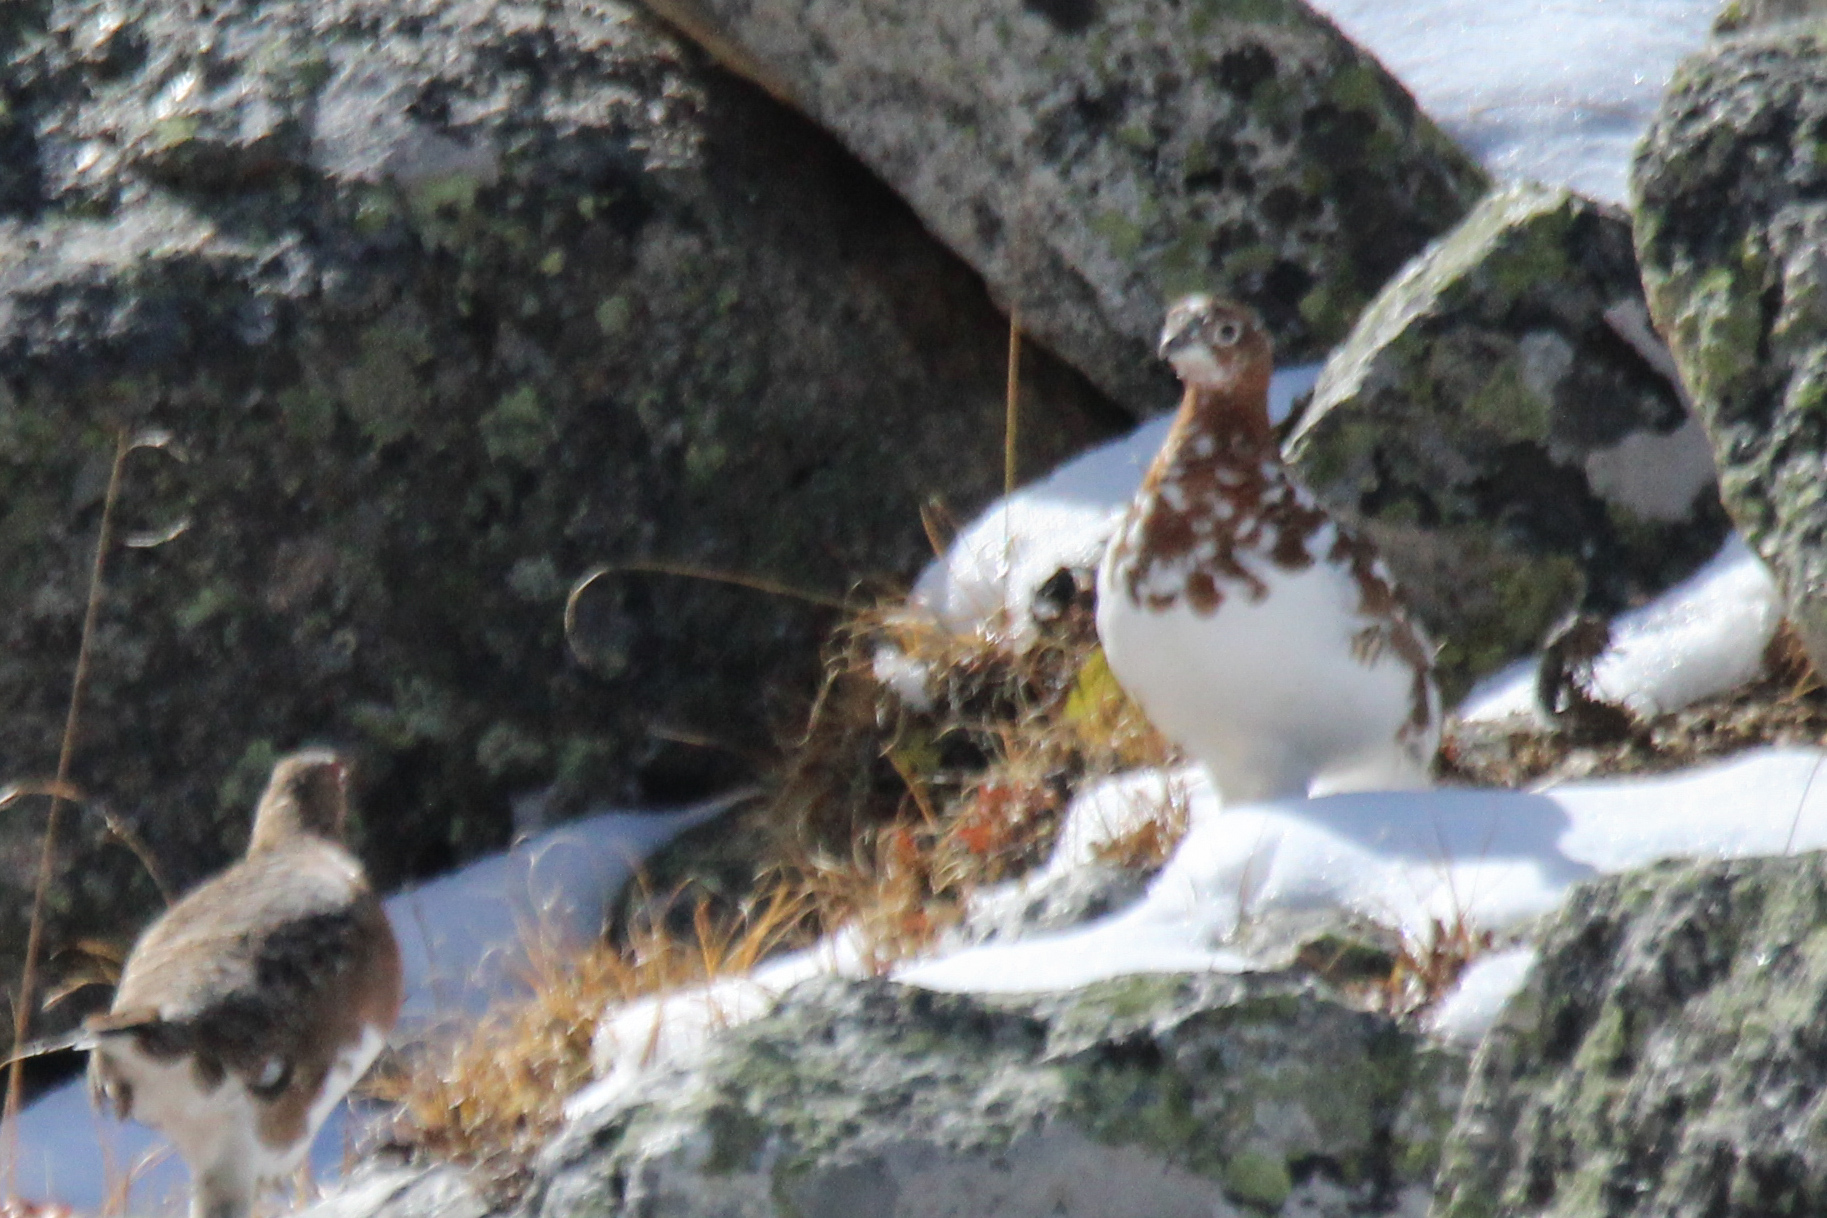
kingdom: Animalia
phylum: Chordata
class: Aves
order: Galliformes
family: Phasianidae
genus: Lagopus
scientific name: Lagopus lagopus
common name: Willow ptarmigan
